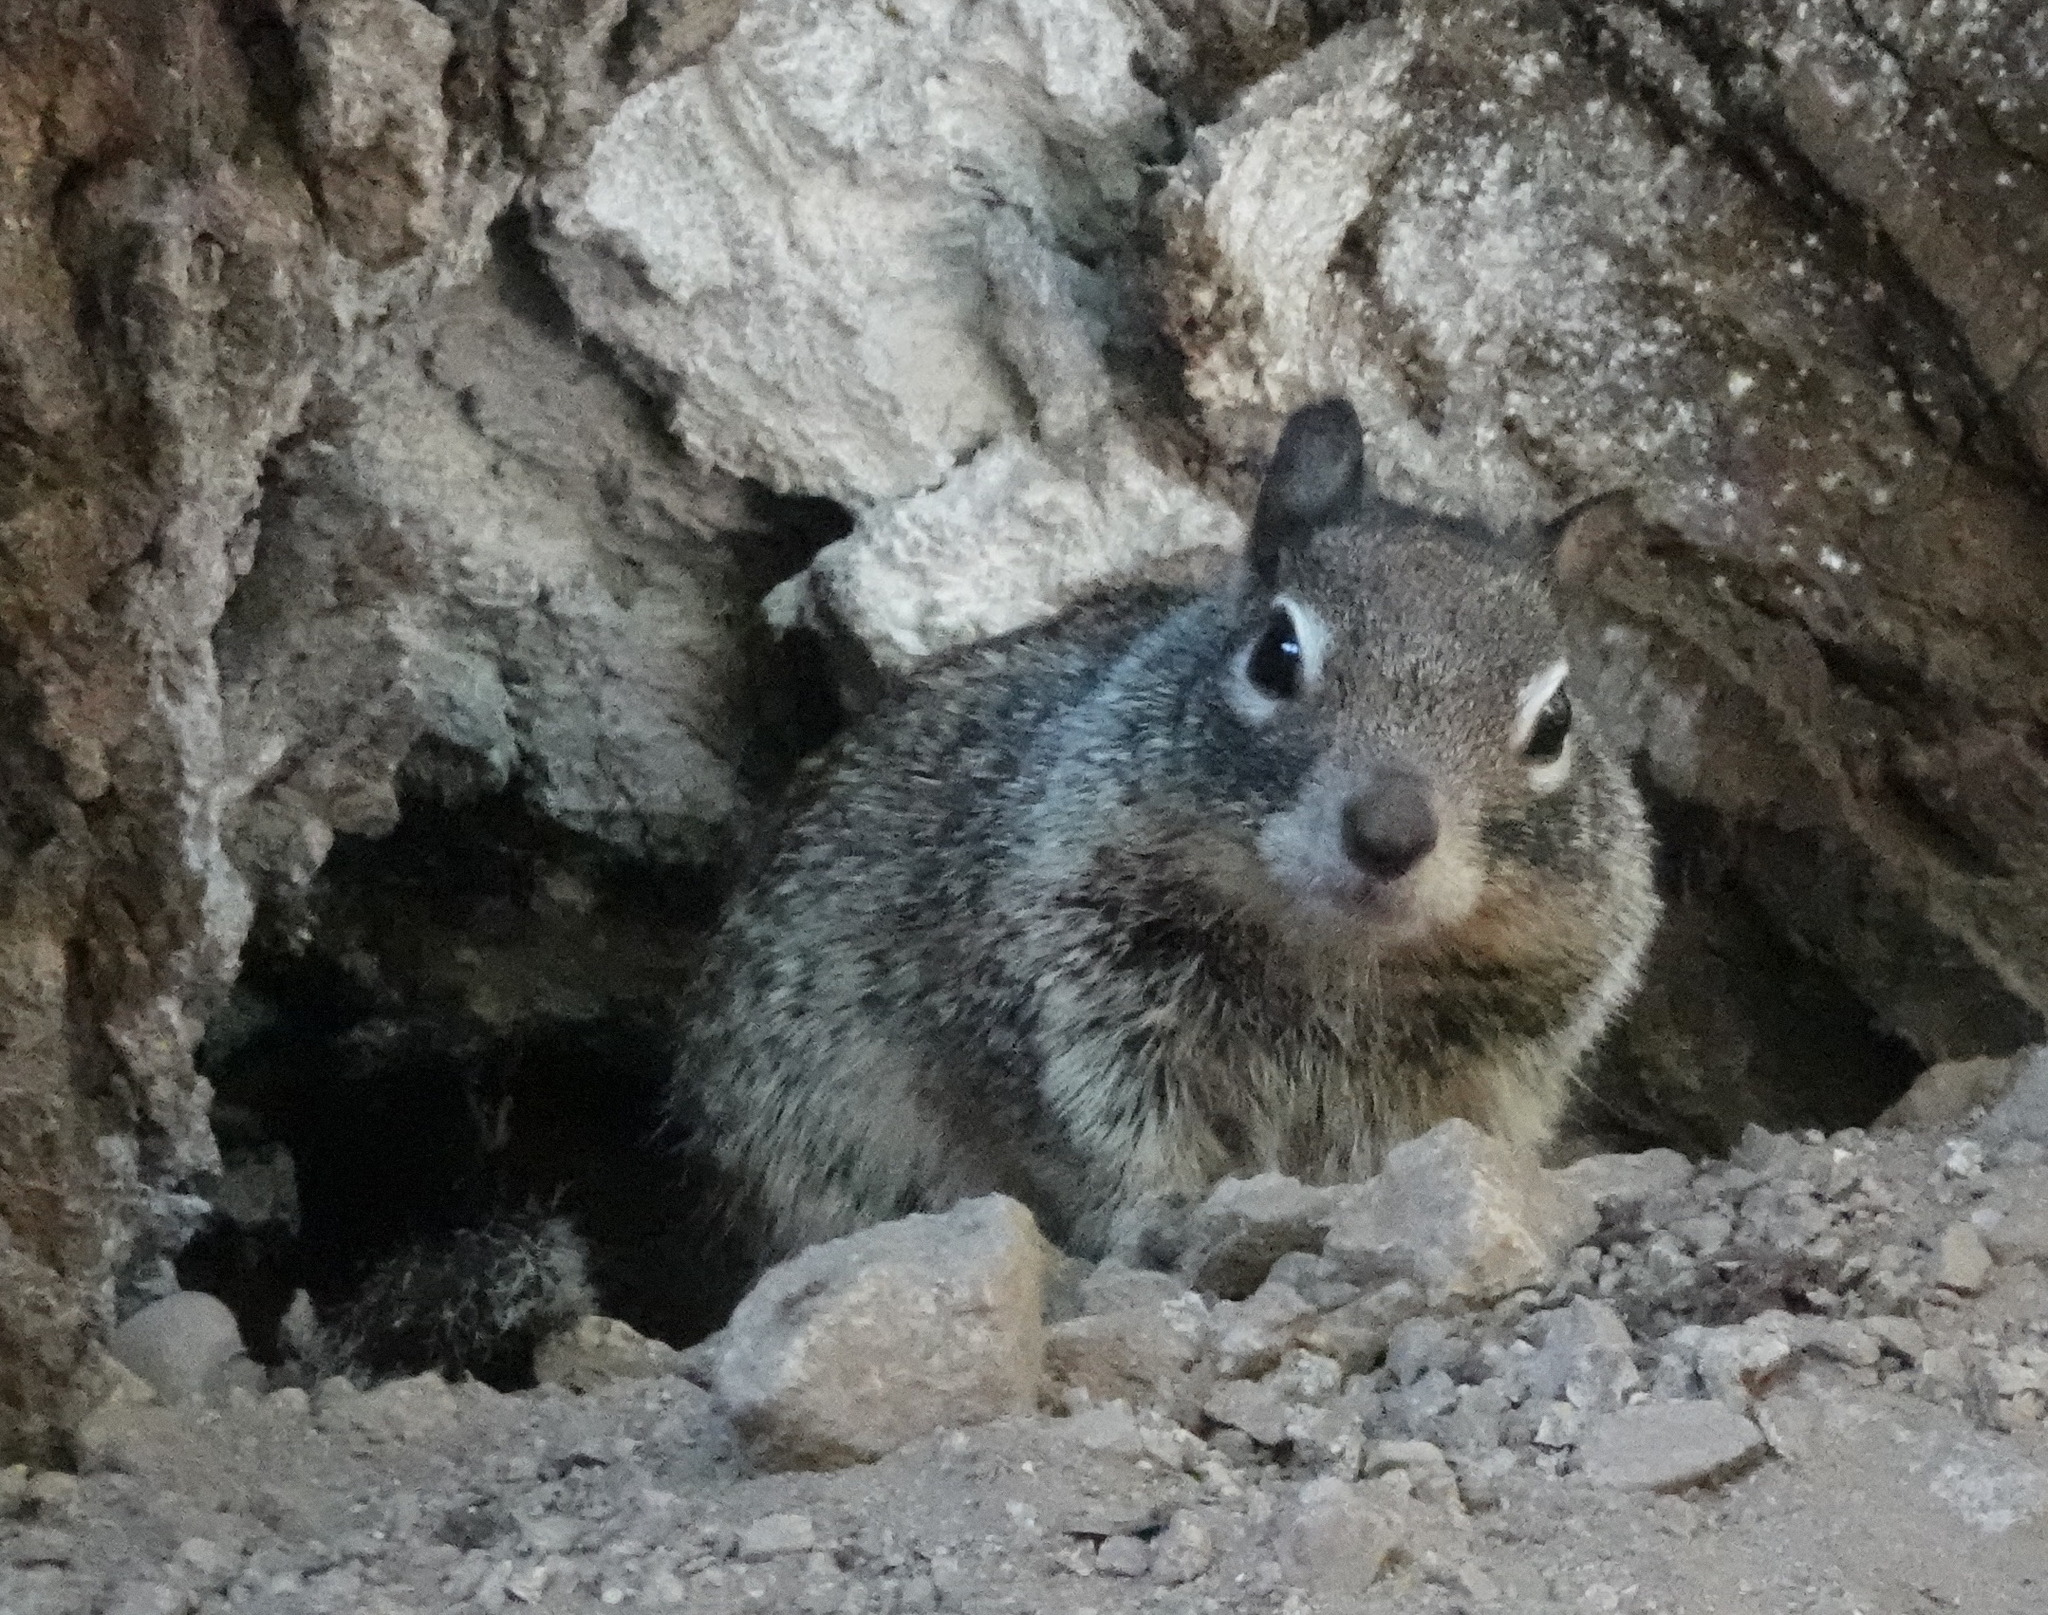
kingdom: Animalia
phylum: Chordata
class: Mammalia
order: Rodentia
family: Sciuridae
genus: Otospermophilus
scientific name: Otospermophilus beecheyi
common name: California ground squirrel
